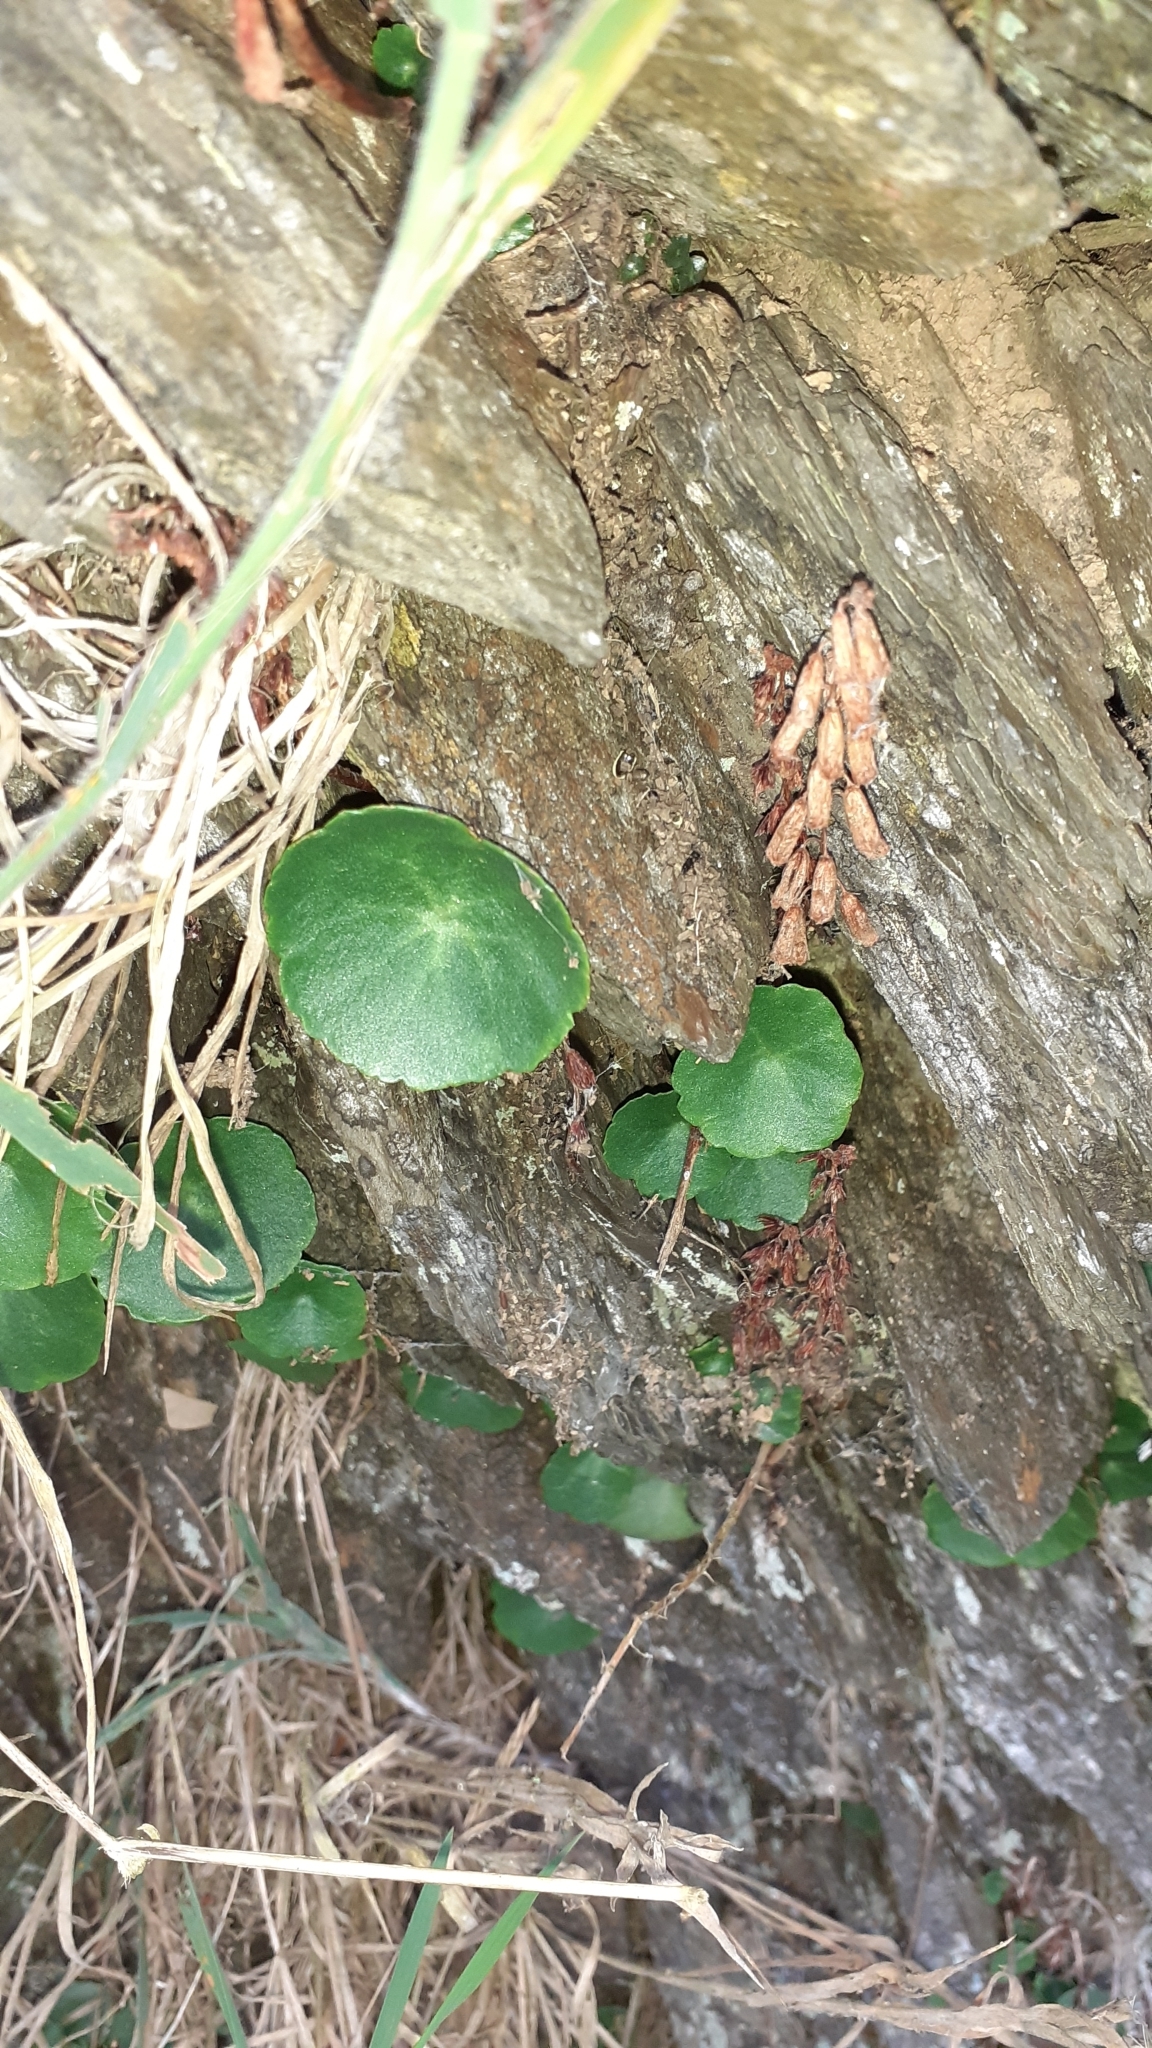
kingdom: Plantae
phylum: Tracheophyta
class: Magnoliopsida
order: Saxifragales
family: Crassulaceae
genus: Umbilicus
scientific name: Umbilicus rupestris
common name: Navelwort
